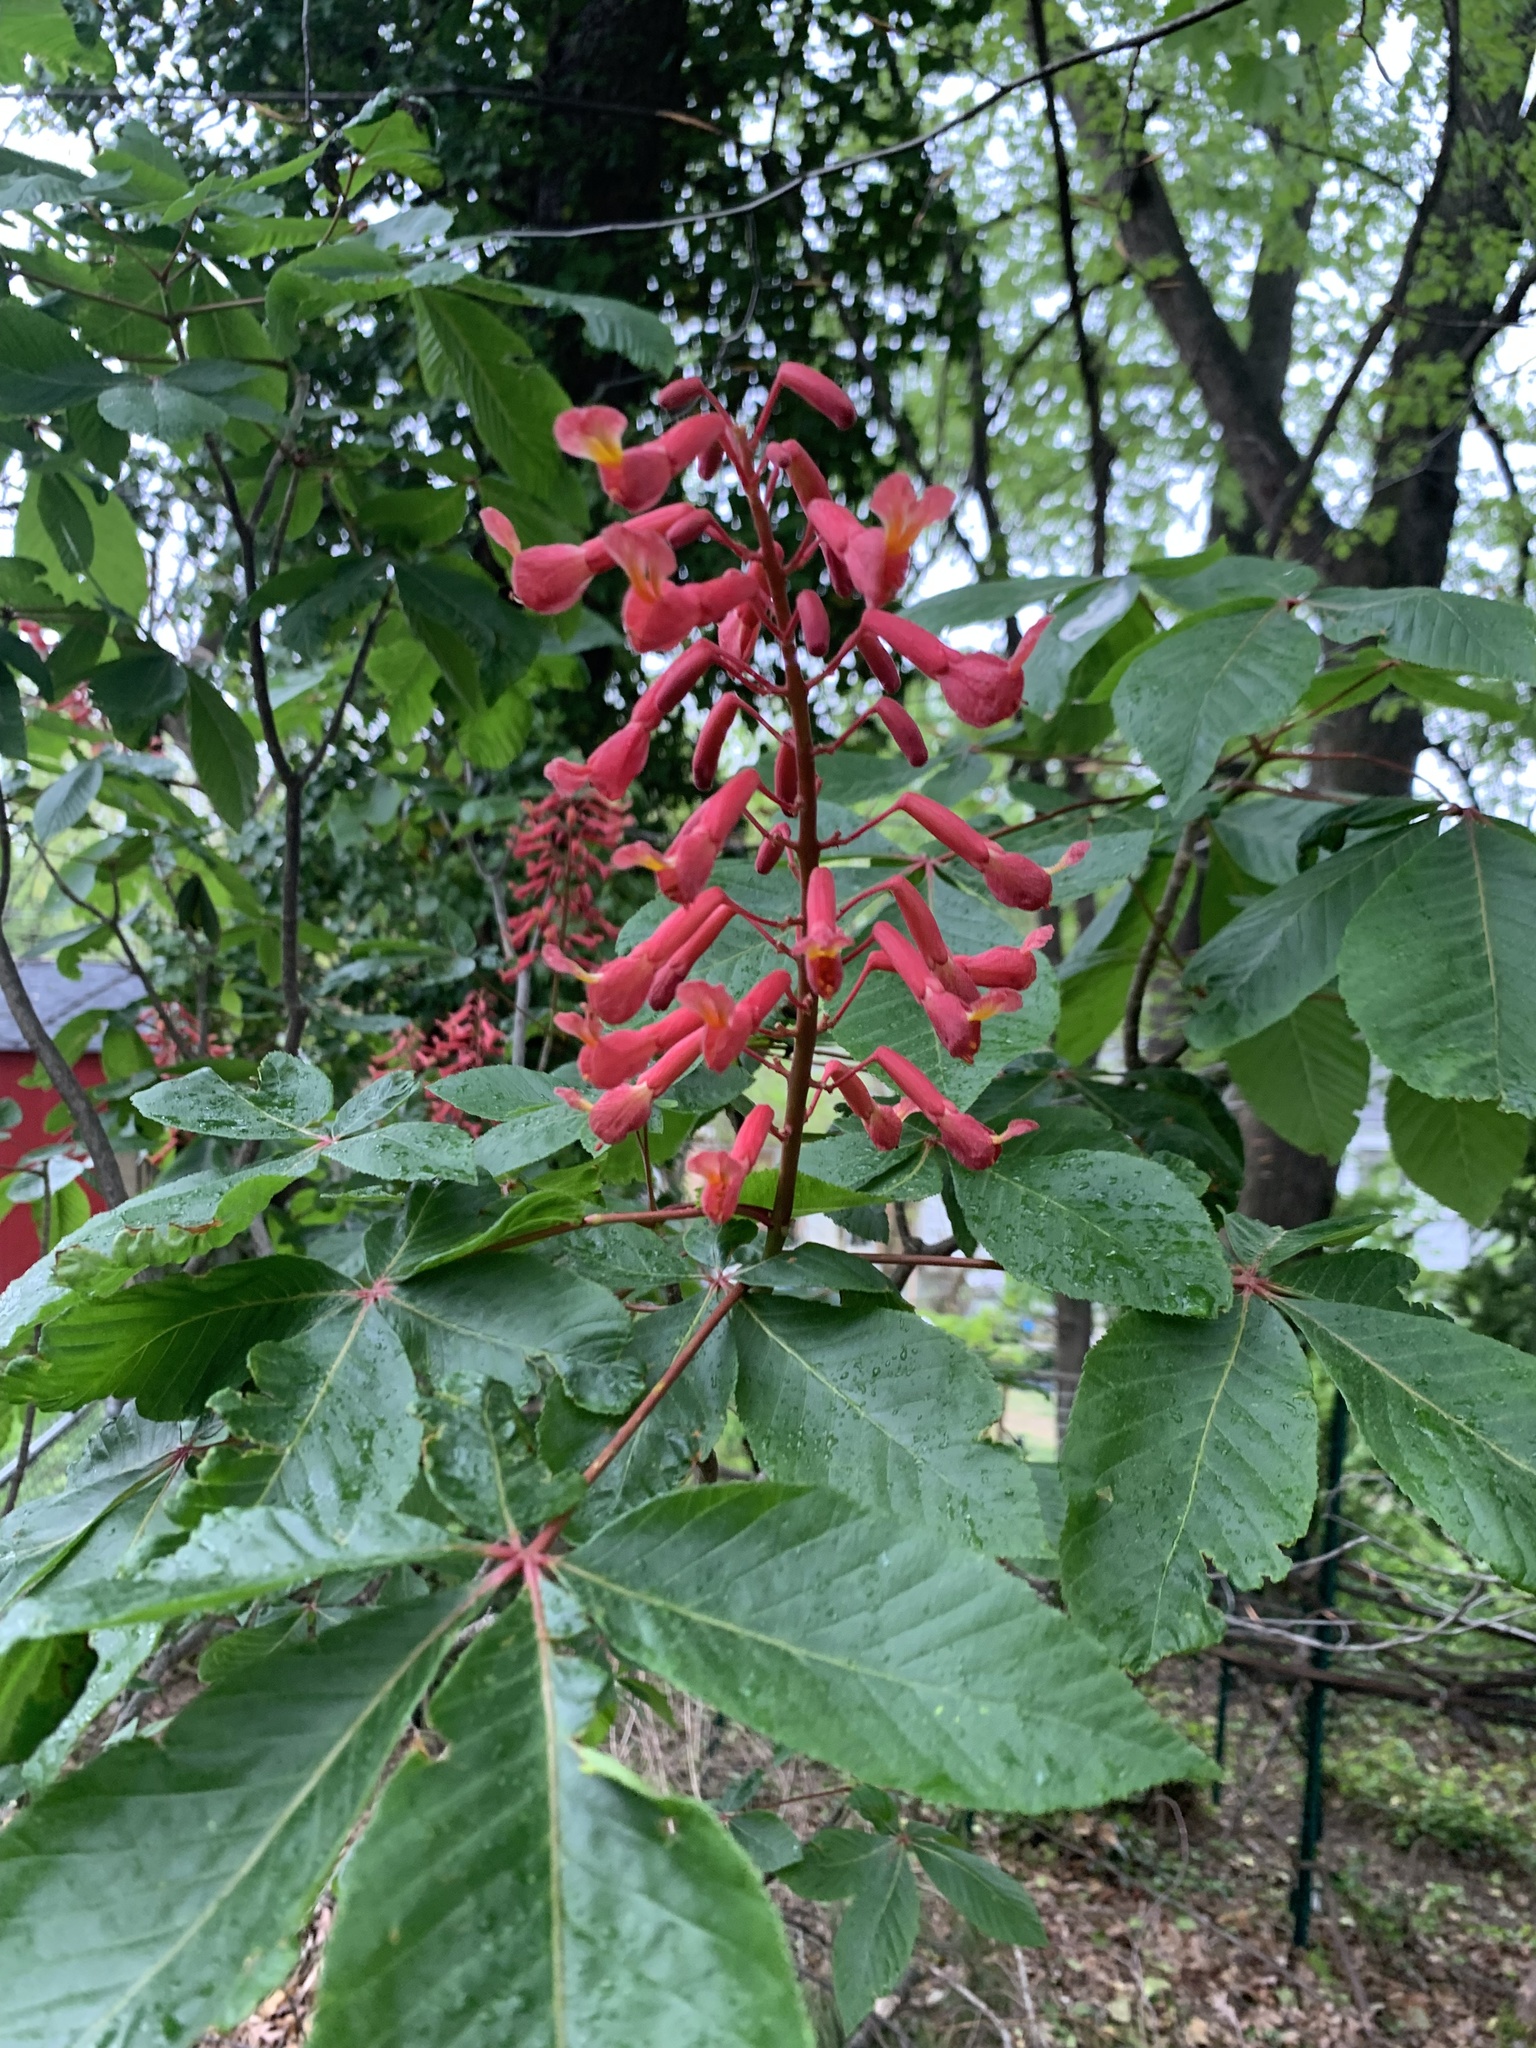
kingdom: Plantae
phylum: Tracheophyta
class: Magnoliopsida
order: Sapindales
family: Sapindaceae
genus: Aesculus
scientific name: Aesculus pavia
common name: Red buckeye
